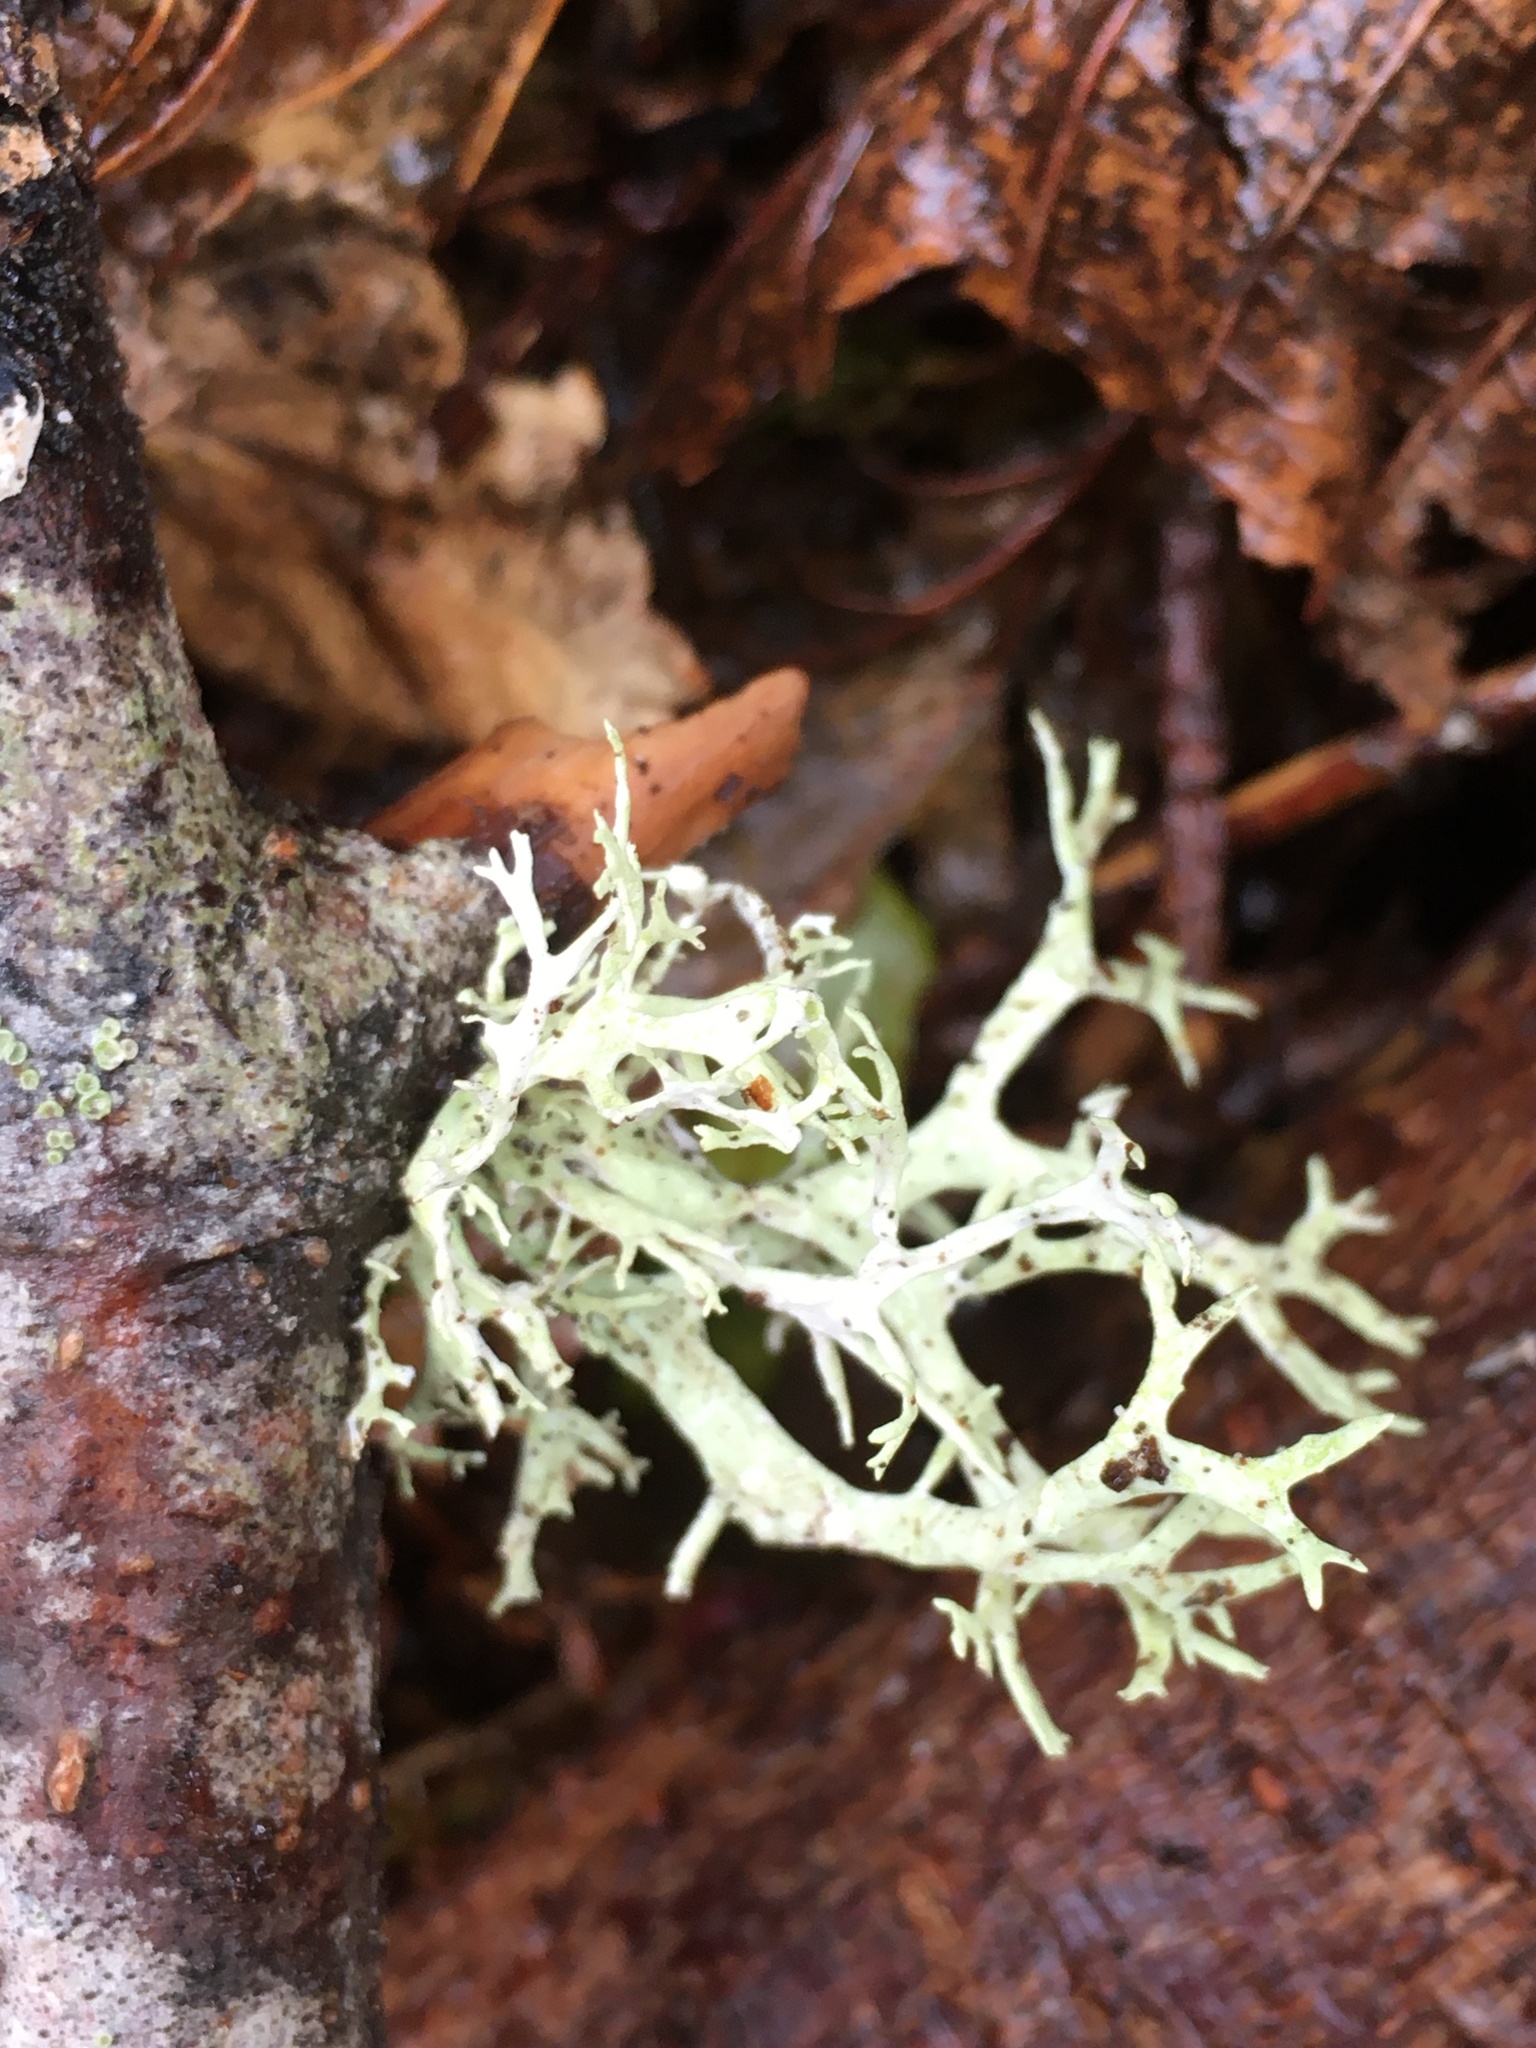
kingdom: Fungi
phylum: Ascomycota
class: Lecanoromycetes
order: Lecanorales
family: Parmeliaceae
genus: Evernia
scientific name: Evernia prunastri
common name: Oak moss
